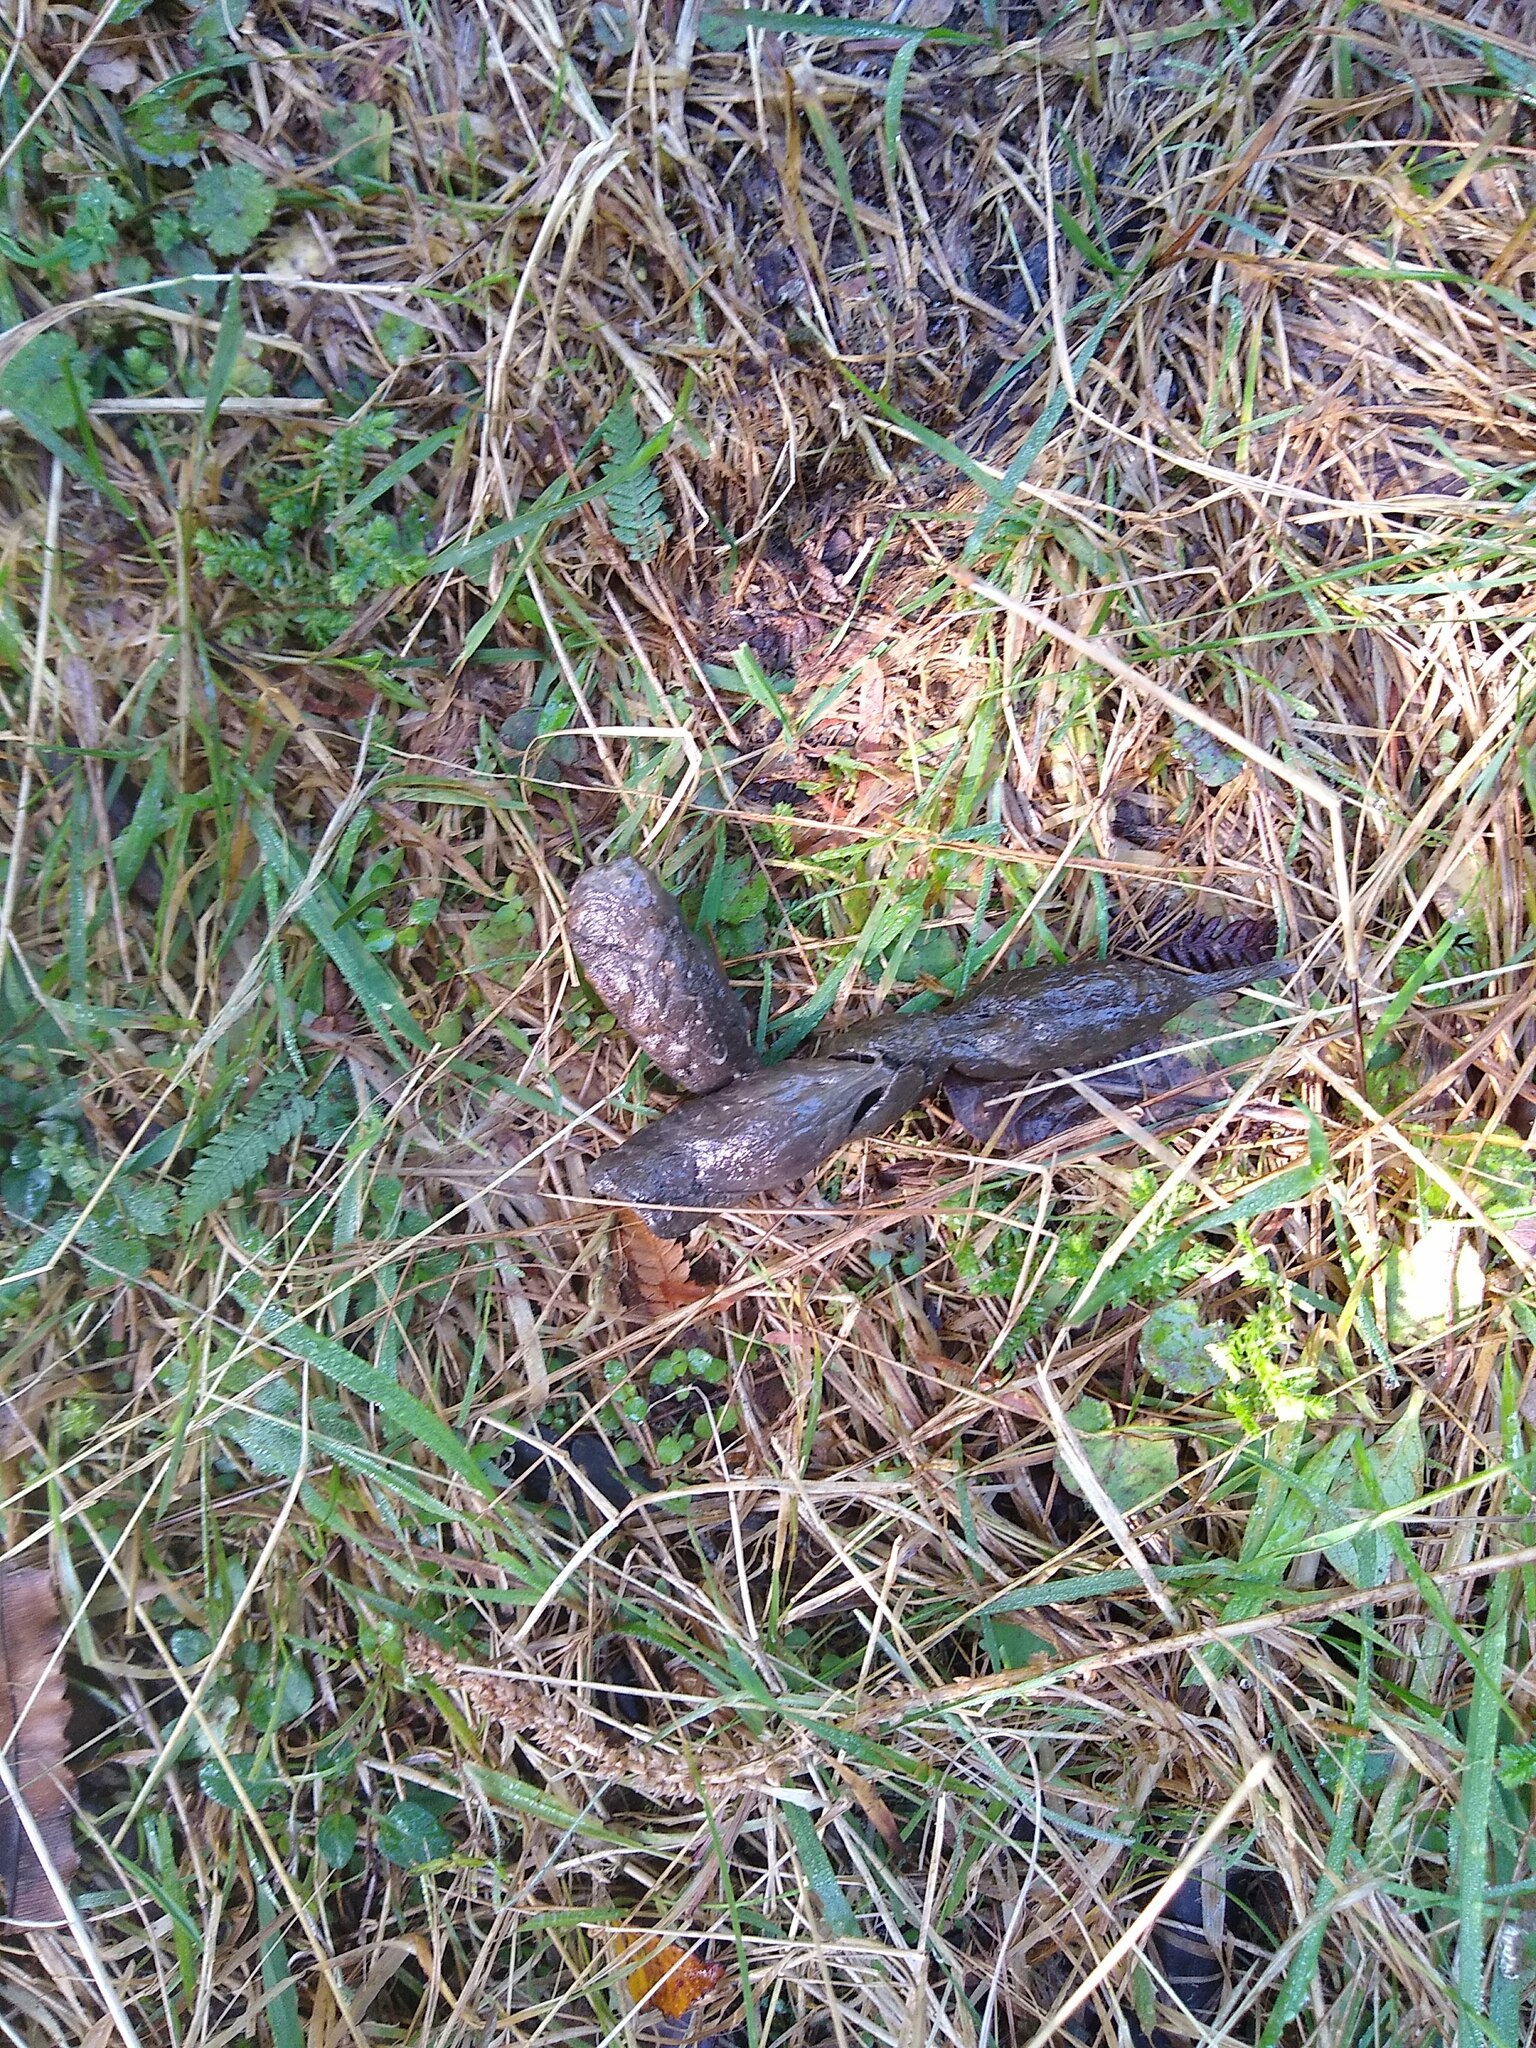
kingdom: Animalia
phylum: Chordata
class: Mammalia
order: Diprotodontia
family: Phalangeridae
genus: Trichosurus
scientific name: Trichosurus vulpecula
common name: Common brushtail
